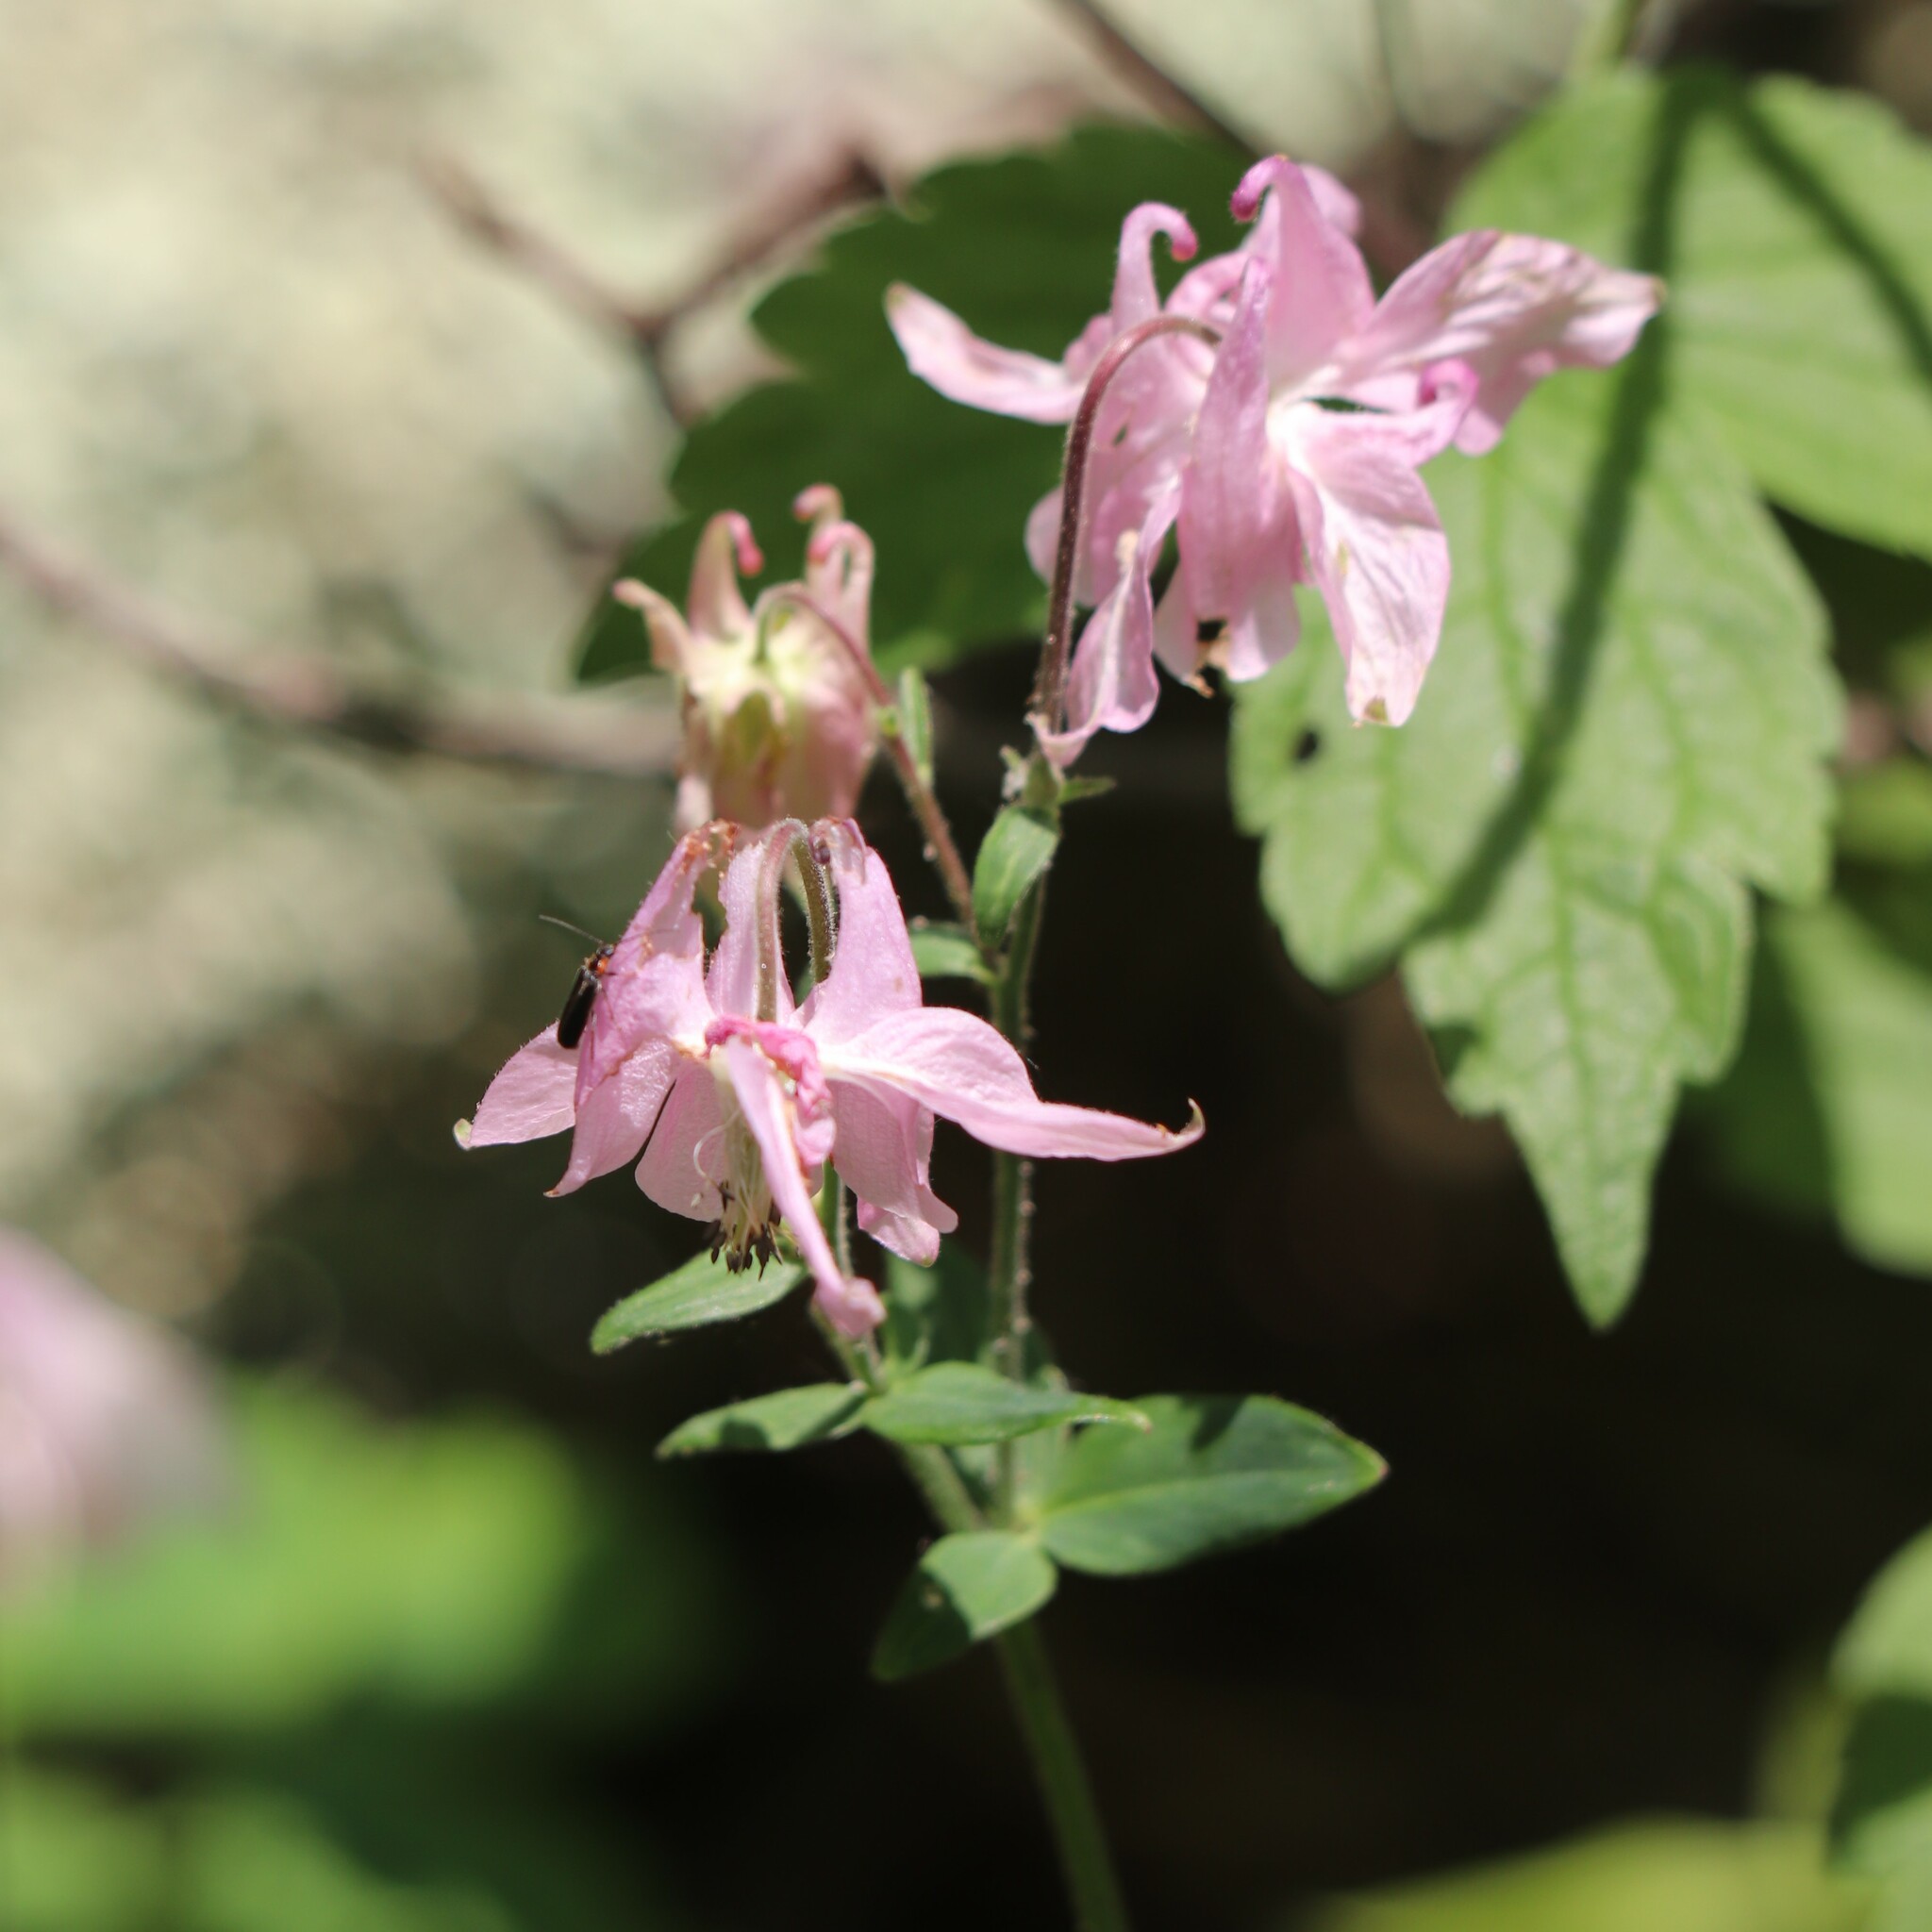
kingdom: Plantae
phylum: Tracheophyta
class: Magnoliopsida
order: Ranunculales
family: Ranunculaceae
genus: Aquilegia
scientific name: Aquilegia vulgaris
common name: Columbine
